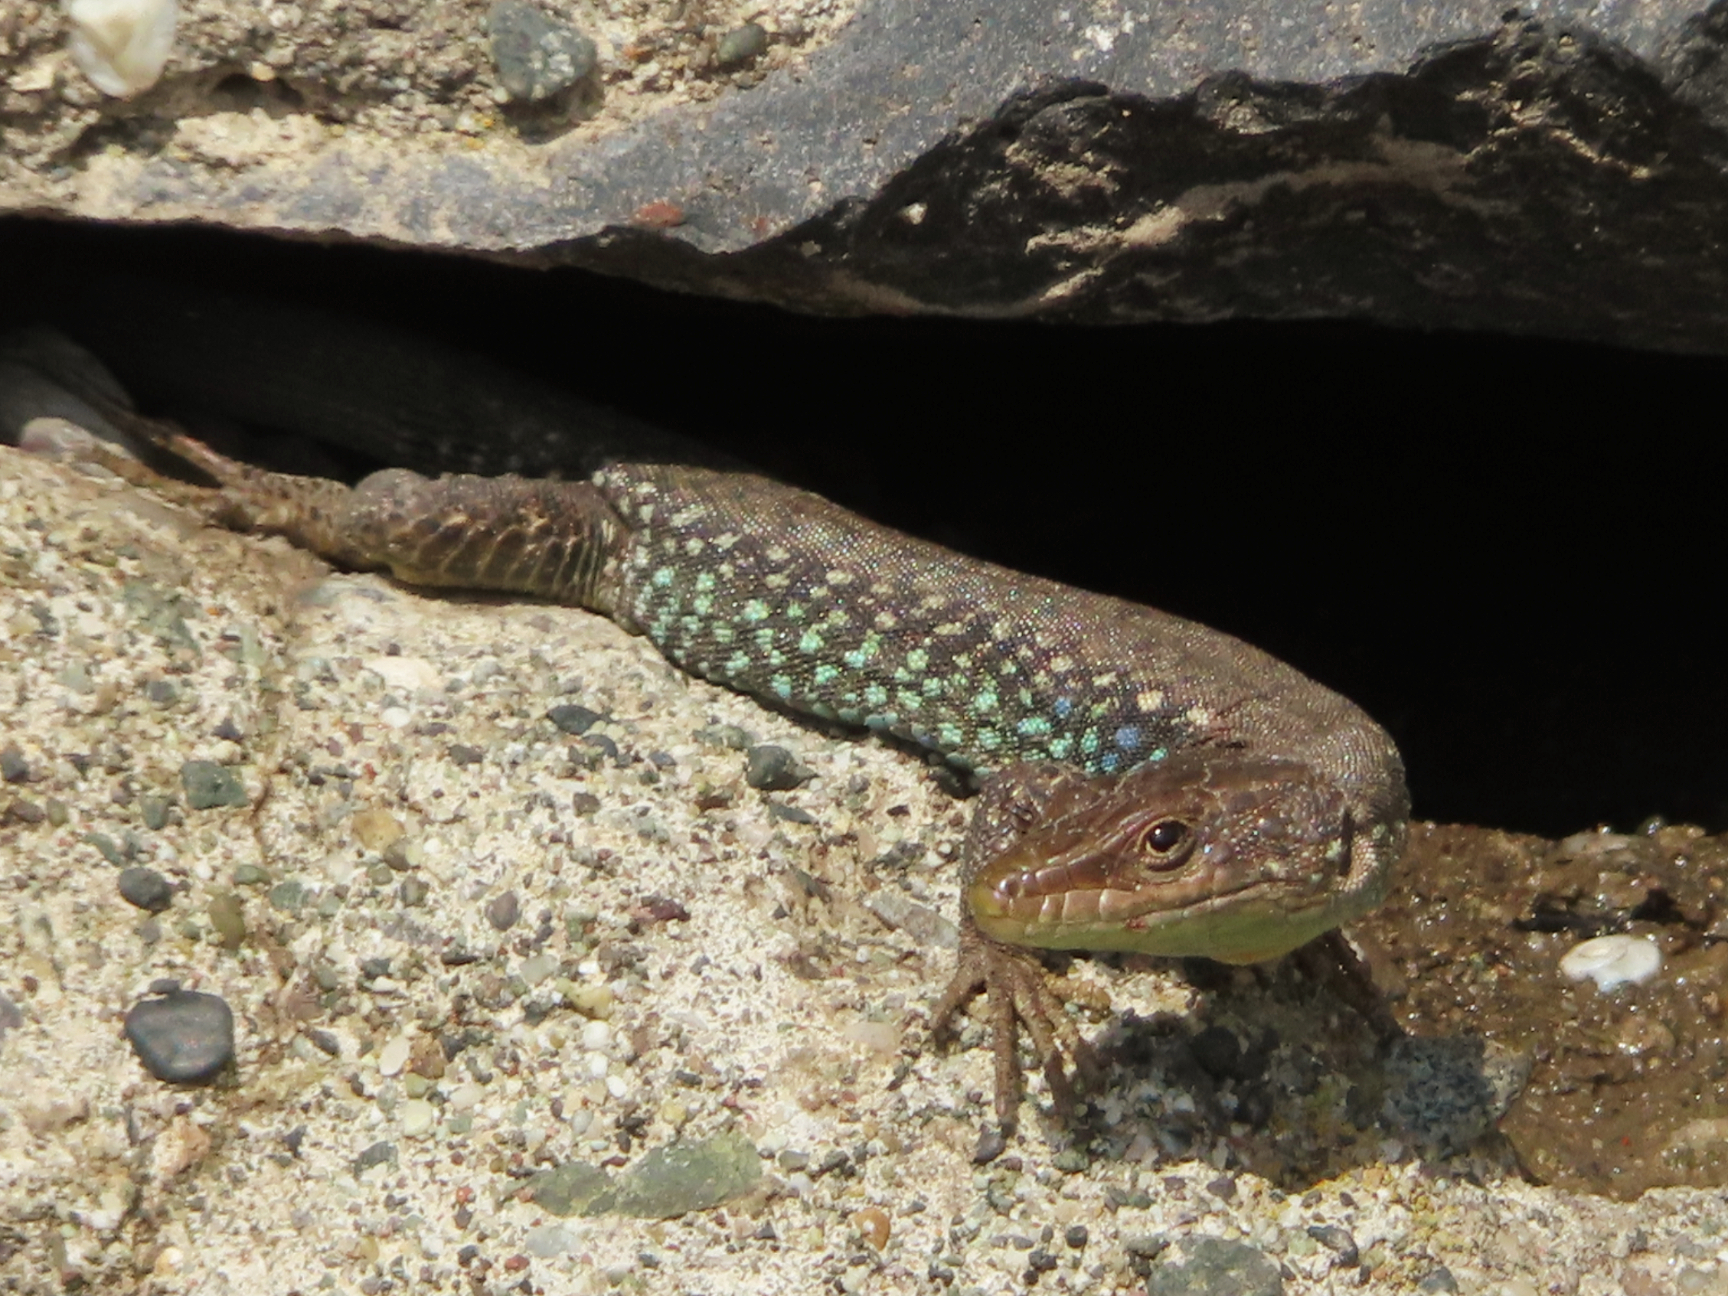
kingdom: Animalia
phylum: Chordata
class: Squamata
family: Lacertidae
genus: Darevskia
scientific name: Darevskia
